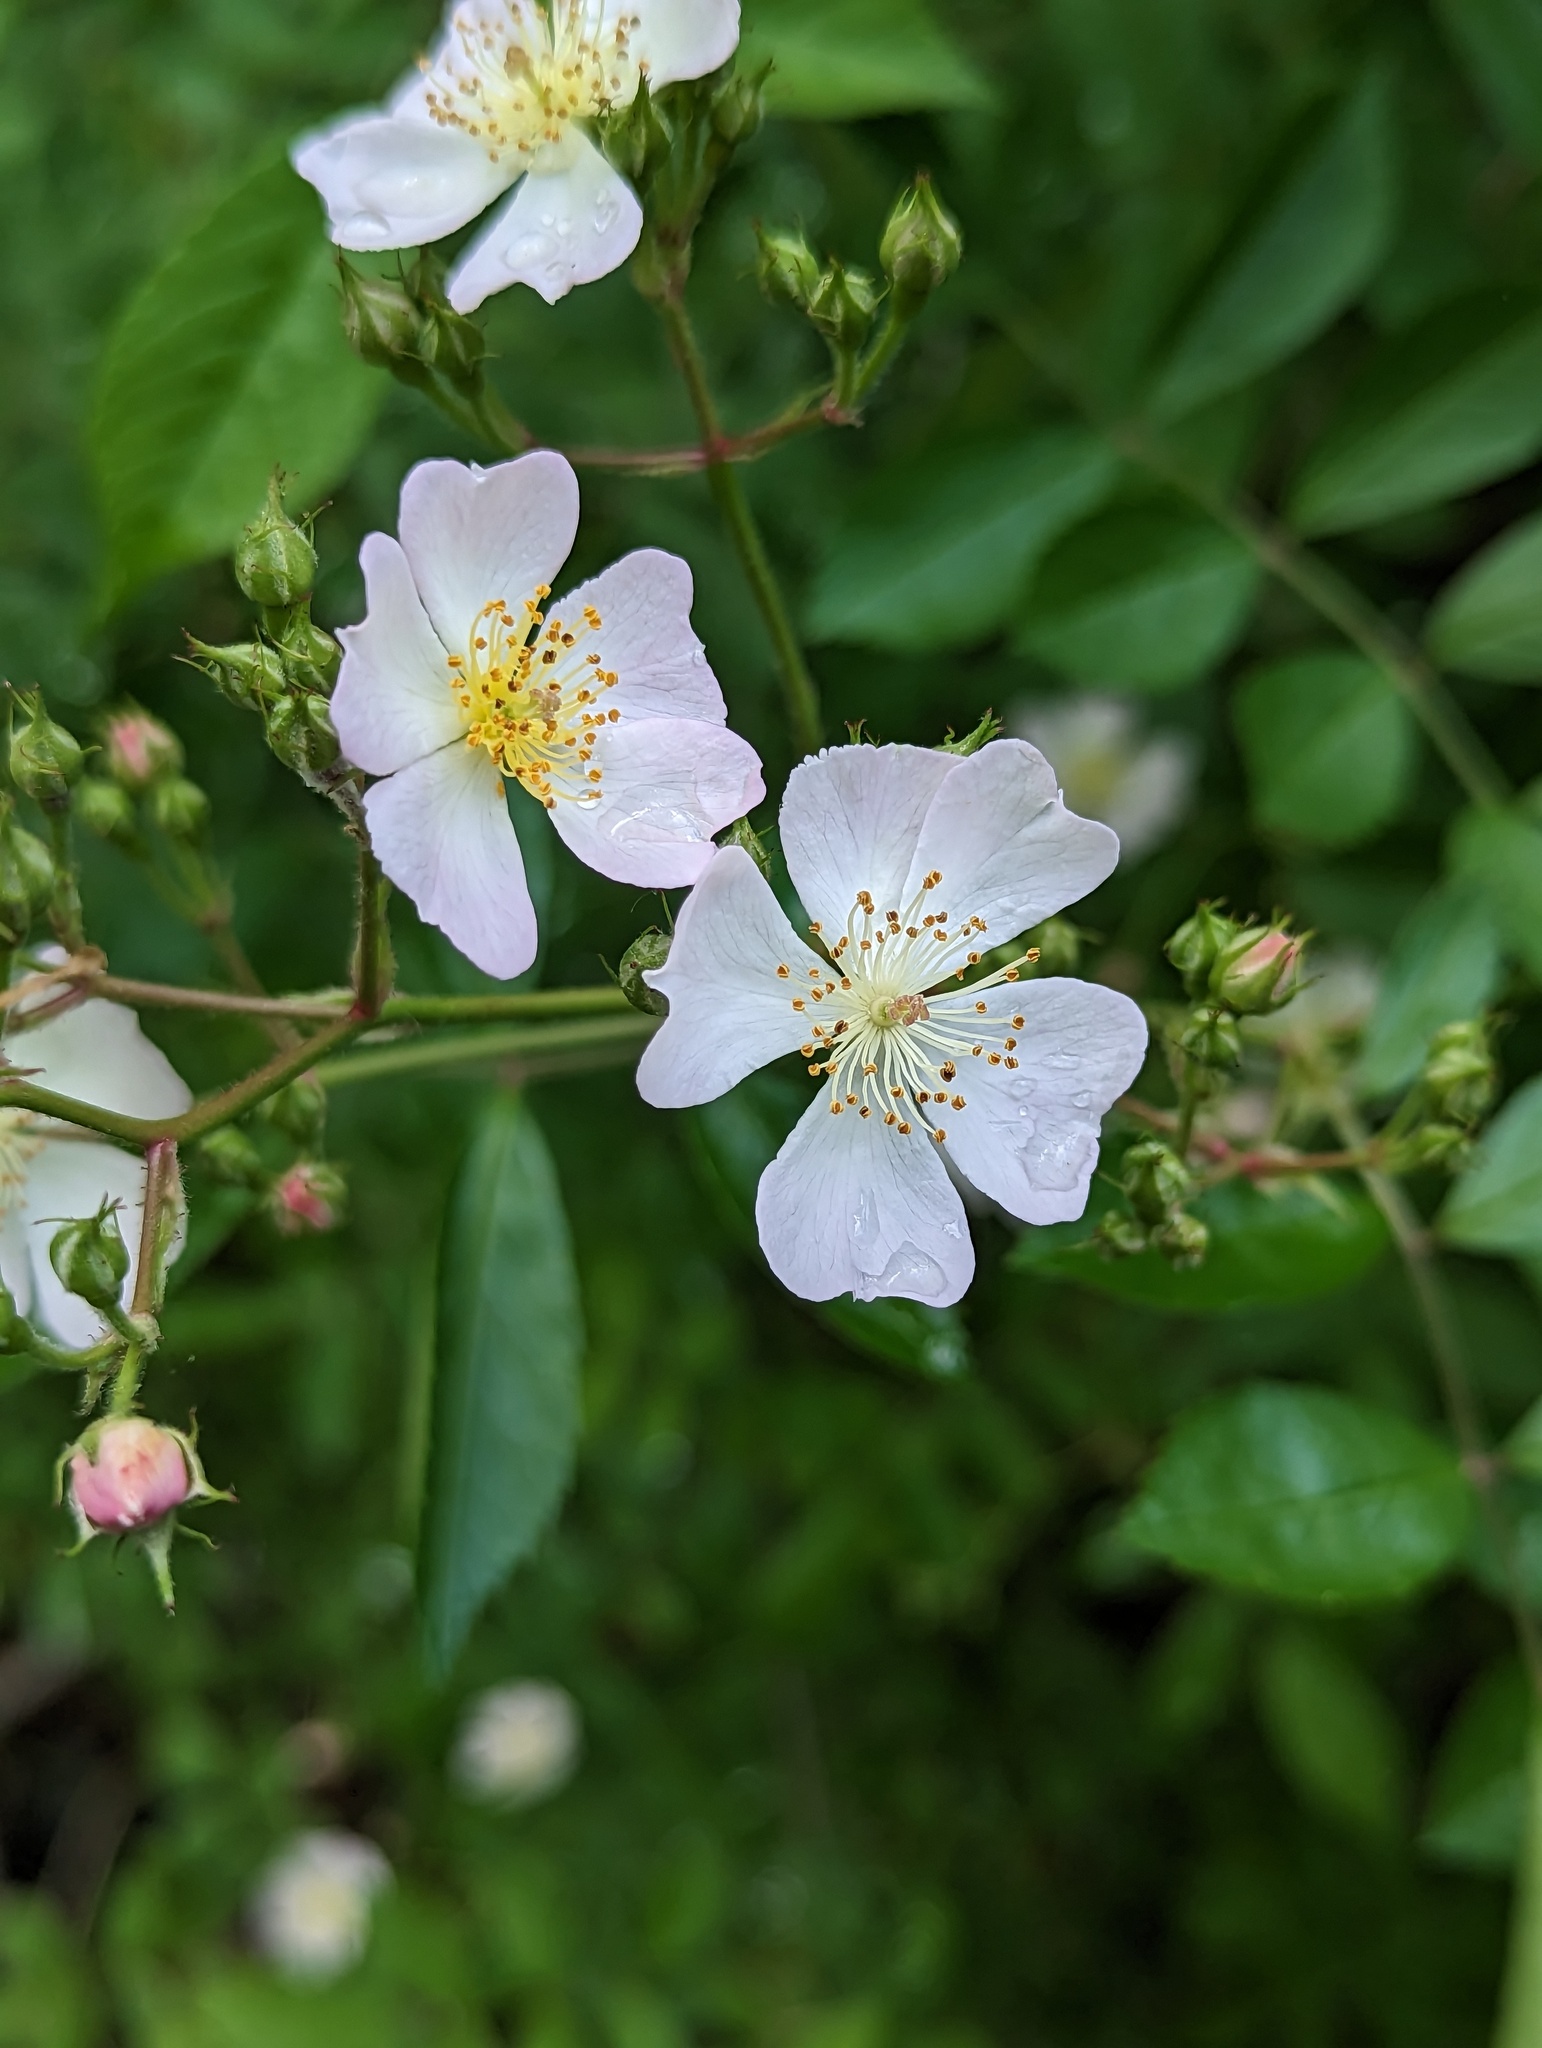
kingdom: Plantae
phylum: Tracheophyta
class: Magnoliopsida
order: Rosales
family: Rosaceae
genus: Rosa
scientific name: Rosa multiflora
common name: Multiflora rose
